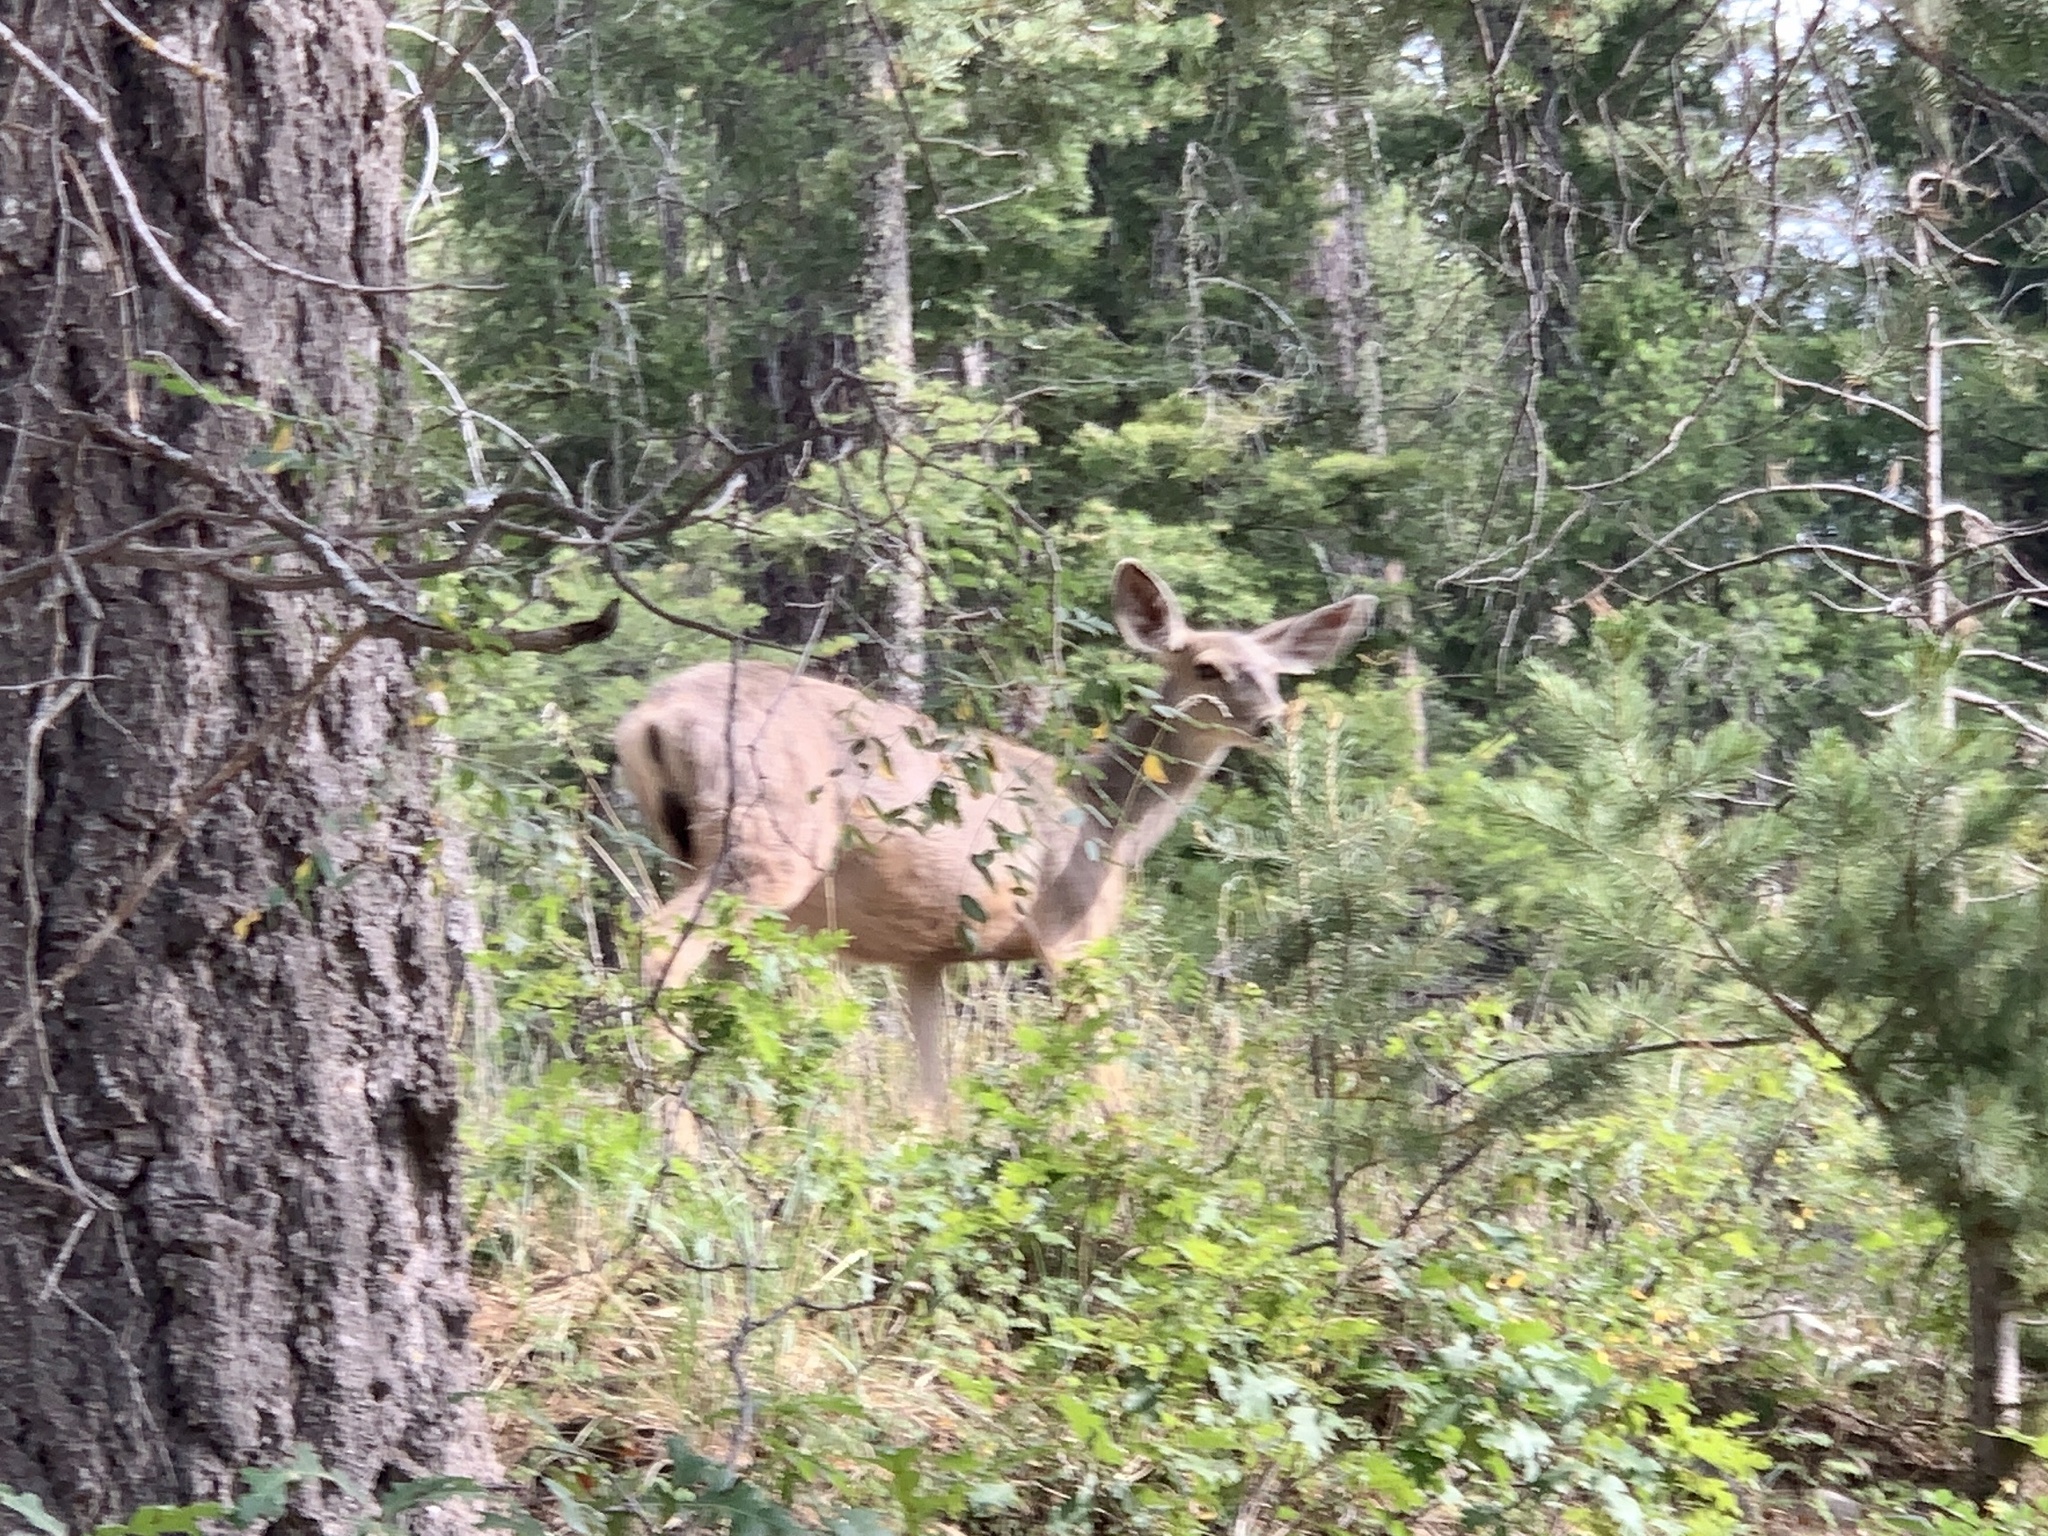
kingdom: Animalia
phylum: Chordata
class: Mammalia
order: Artiodactyla
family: Cervidae
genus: Odocoileus
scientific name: Odocoileus hemionus
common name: Mule deer
